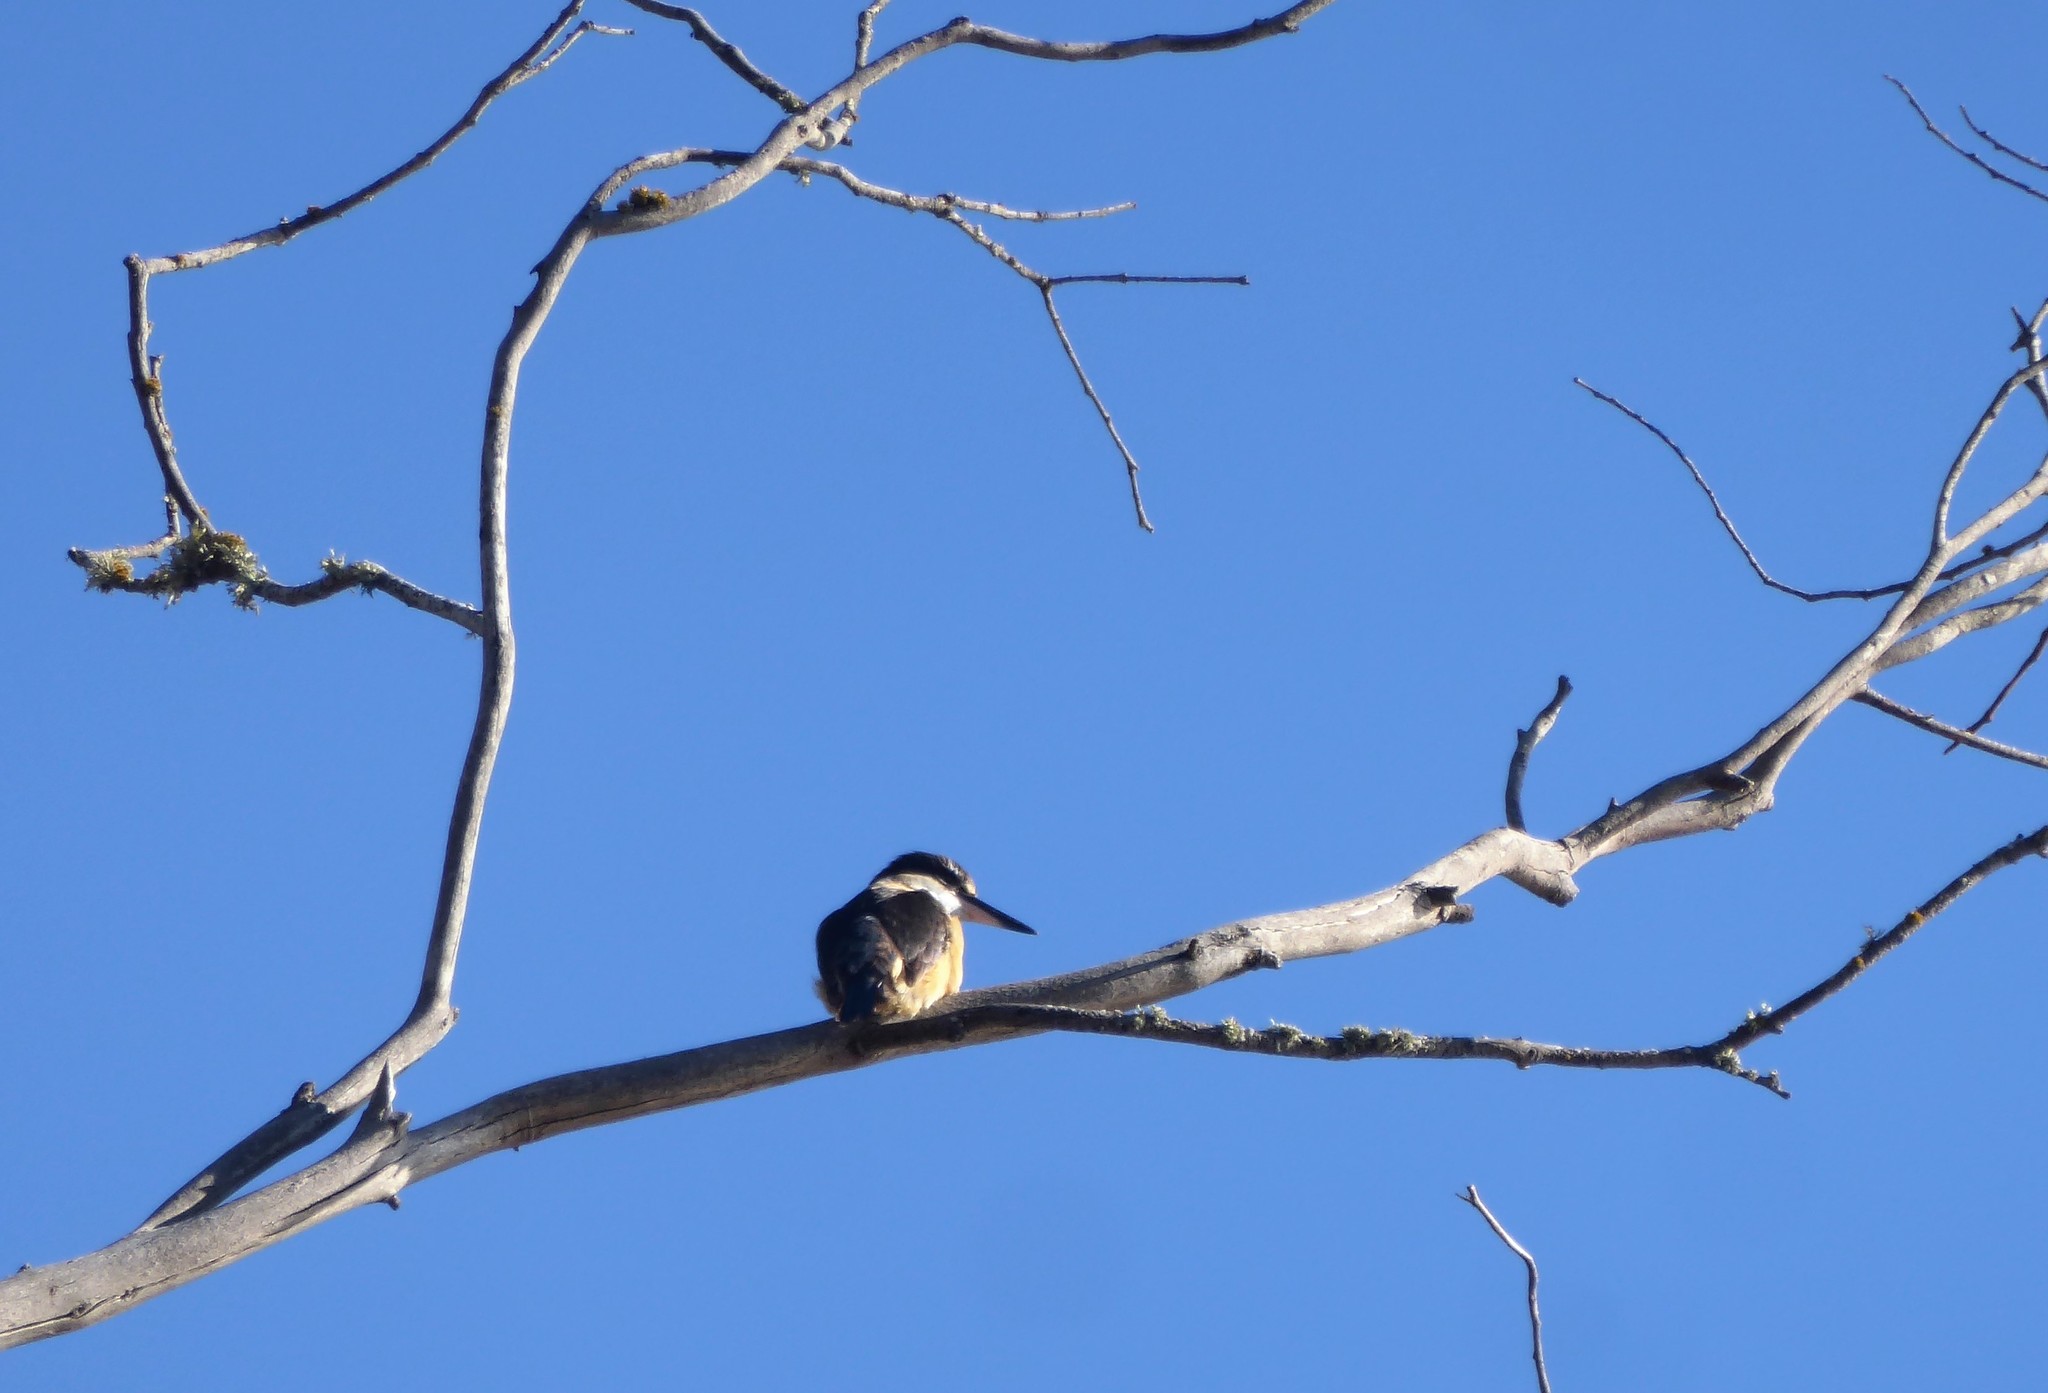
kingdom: Animalia
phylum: Chordata
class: Aves
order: Coraciiformes
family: Alcedinidae
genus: Todiramphus
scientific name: Todiramphus sanctus
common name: Sacred kingfisher
